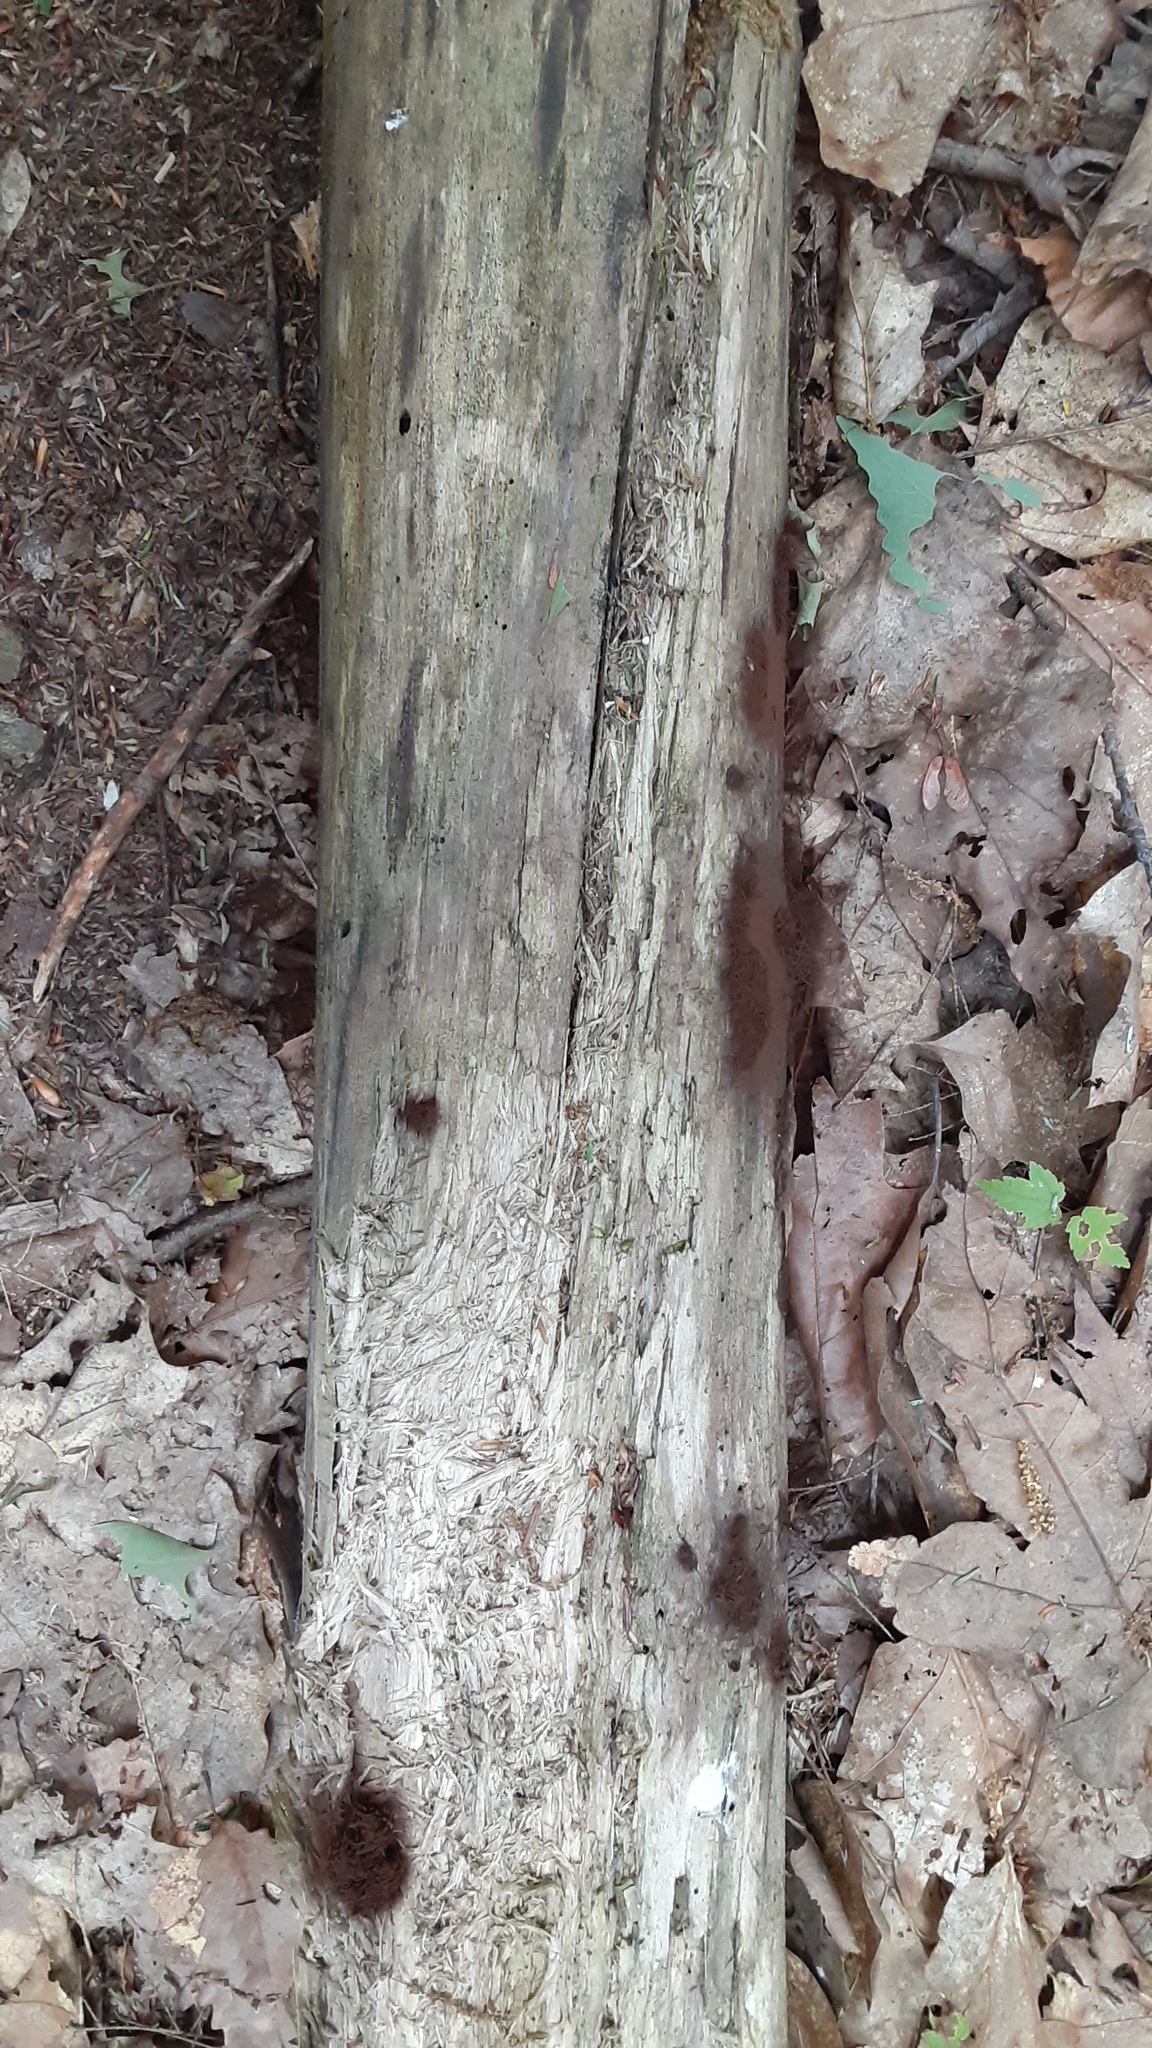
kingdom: Protozoa
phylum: Mycetozoa
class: Myxomycetes
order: Stemonitidales
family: Stemonitidaceae
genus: Stemonitis
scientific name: Stemonitis splendens
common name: Chocolate tube slime
